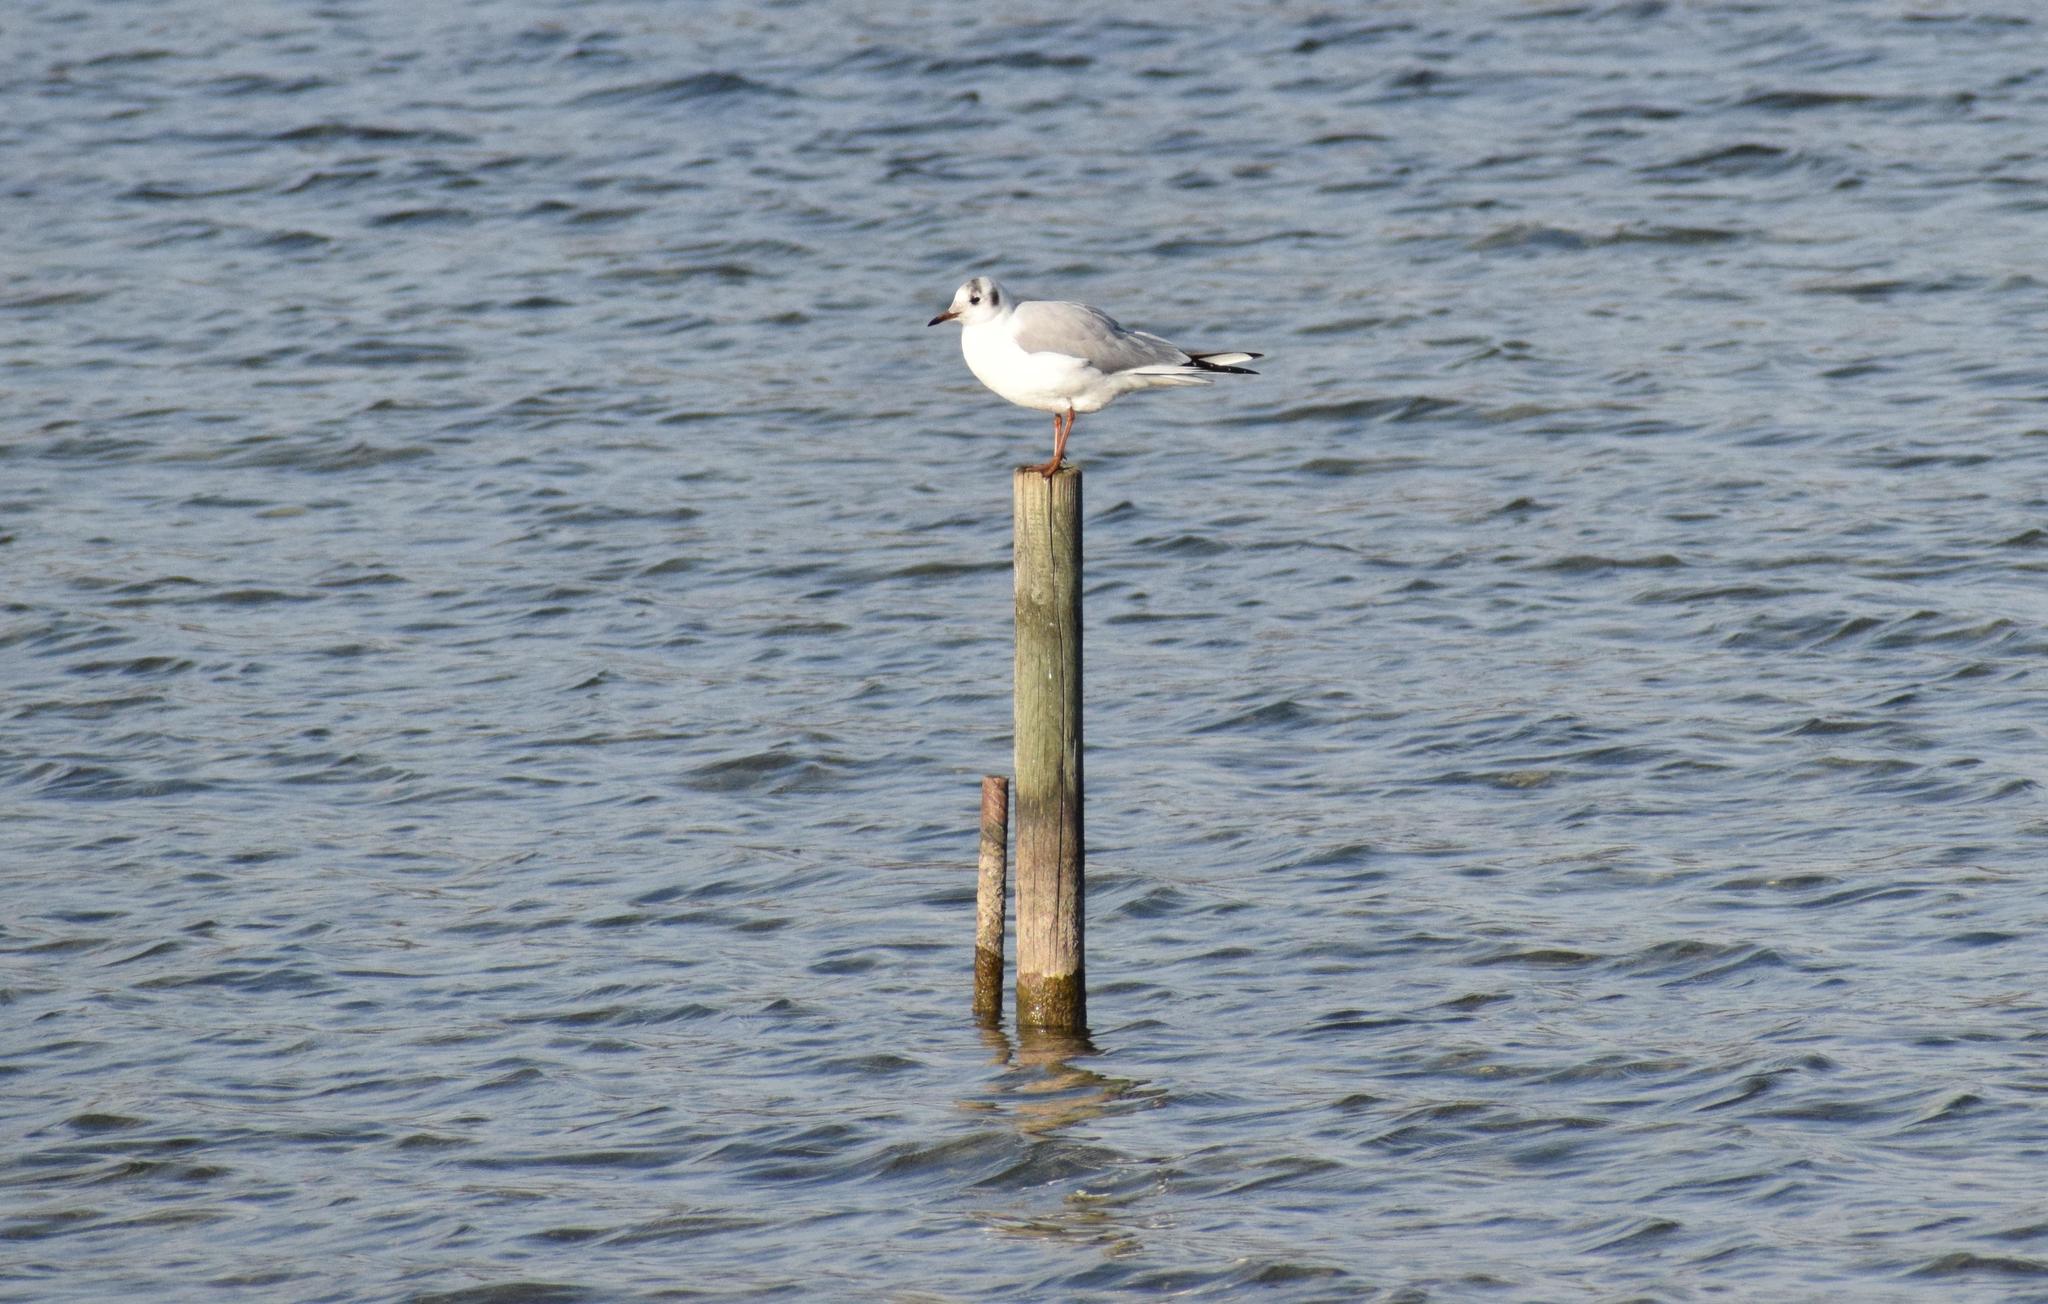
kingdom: Animalia
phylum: Chordata
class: Aves
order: Charadriiformes
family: Laridae
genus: Chroicocephalus
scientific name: Chroicocephalus ridibundus
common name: Black-headed gull
